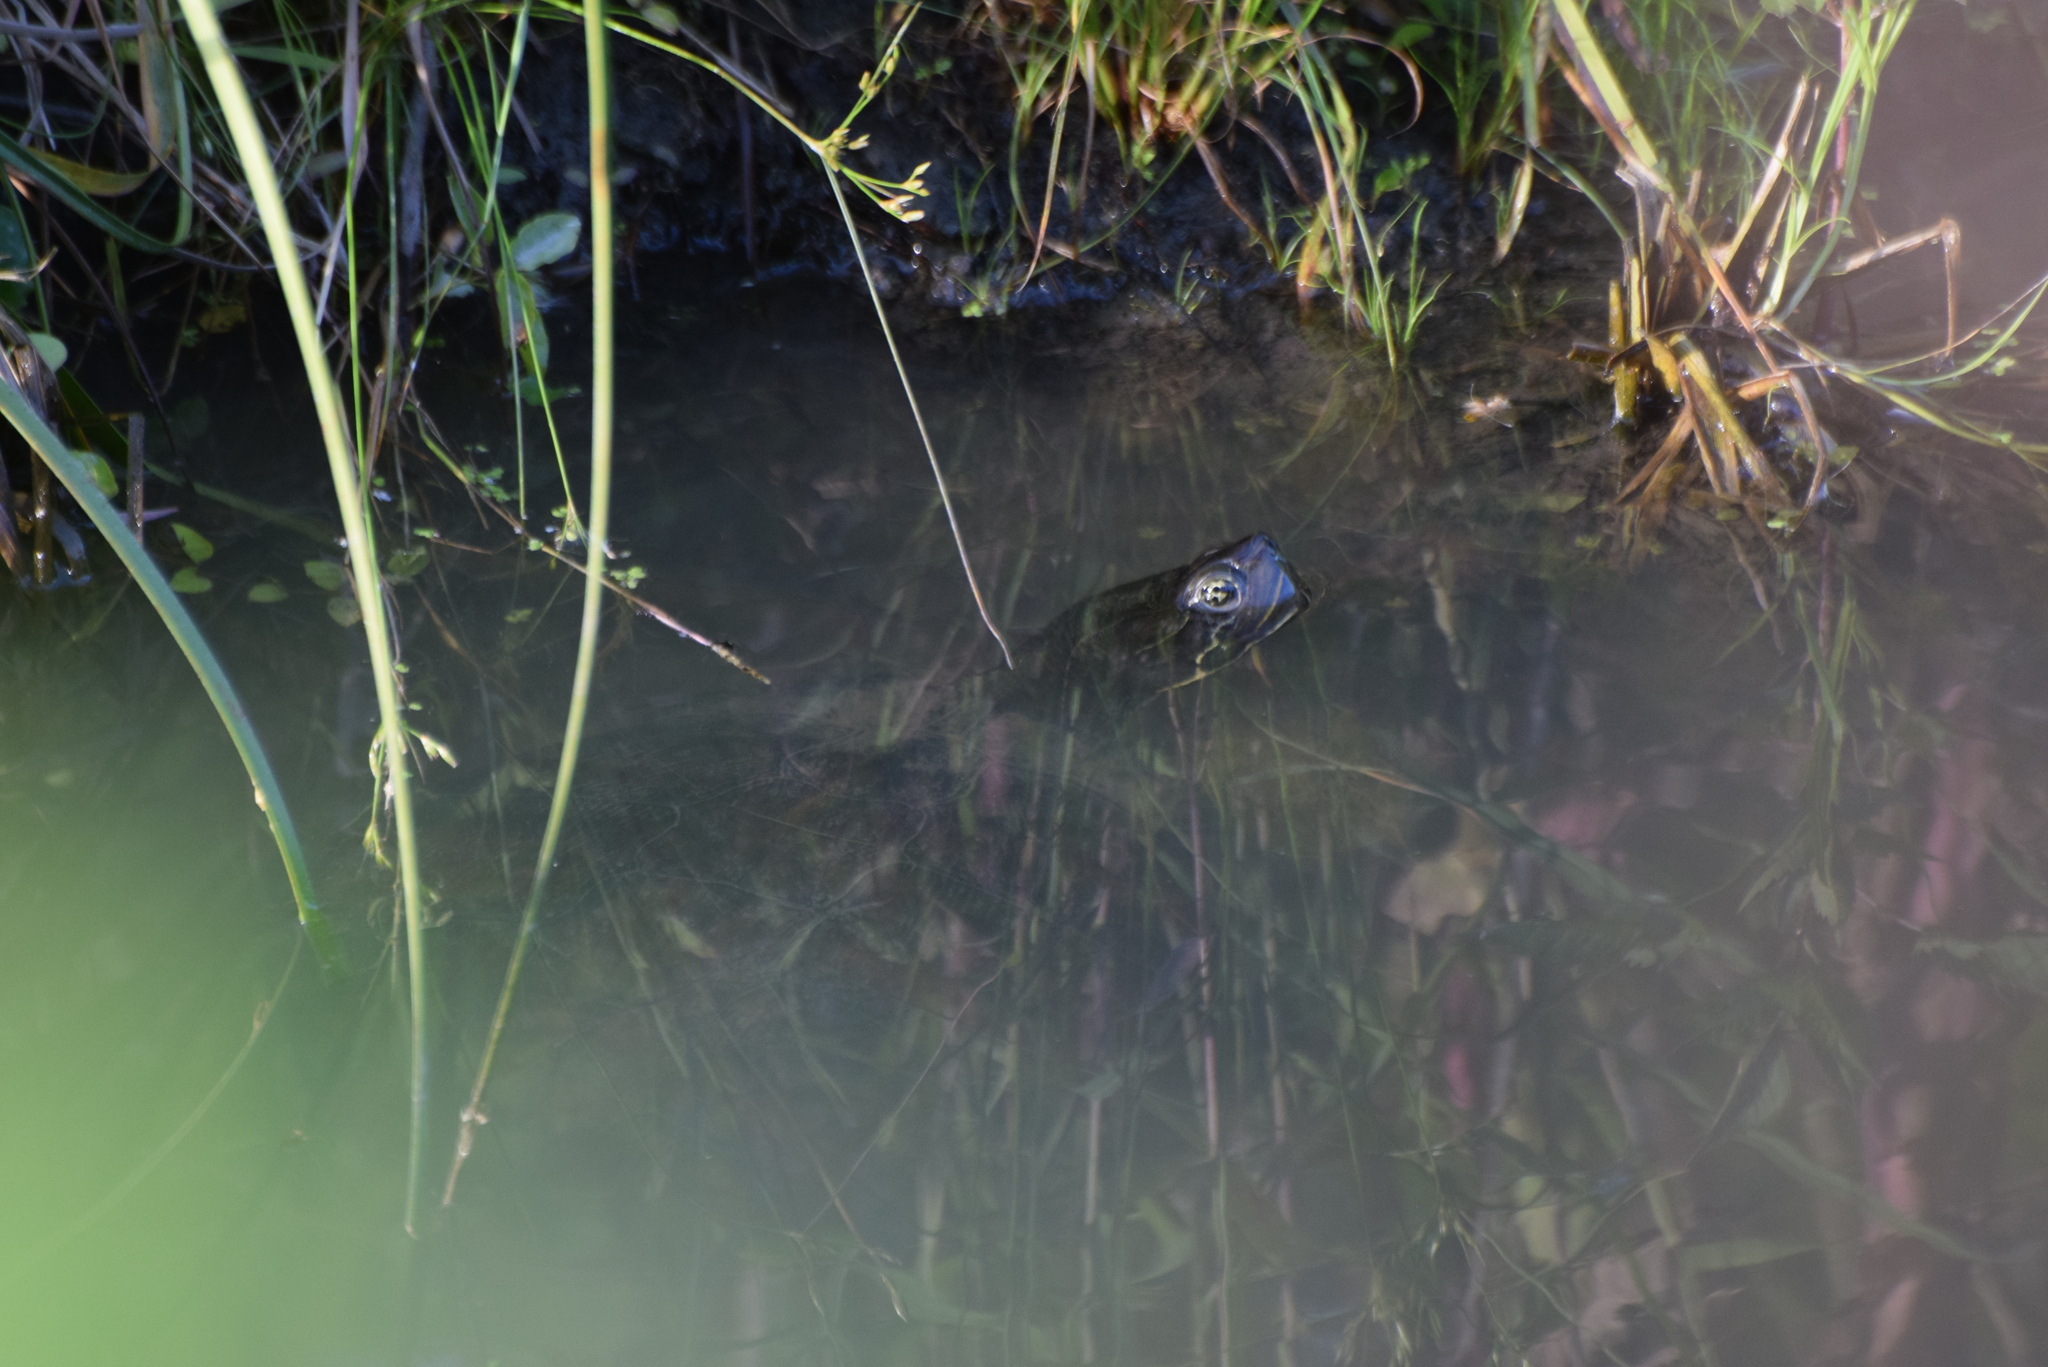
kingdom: Animalia
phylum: Chordata
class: Testudines
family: Emydidae
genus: Pseudemys
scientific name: Pseudemys rubriventris
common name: American red-bellied turtle
